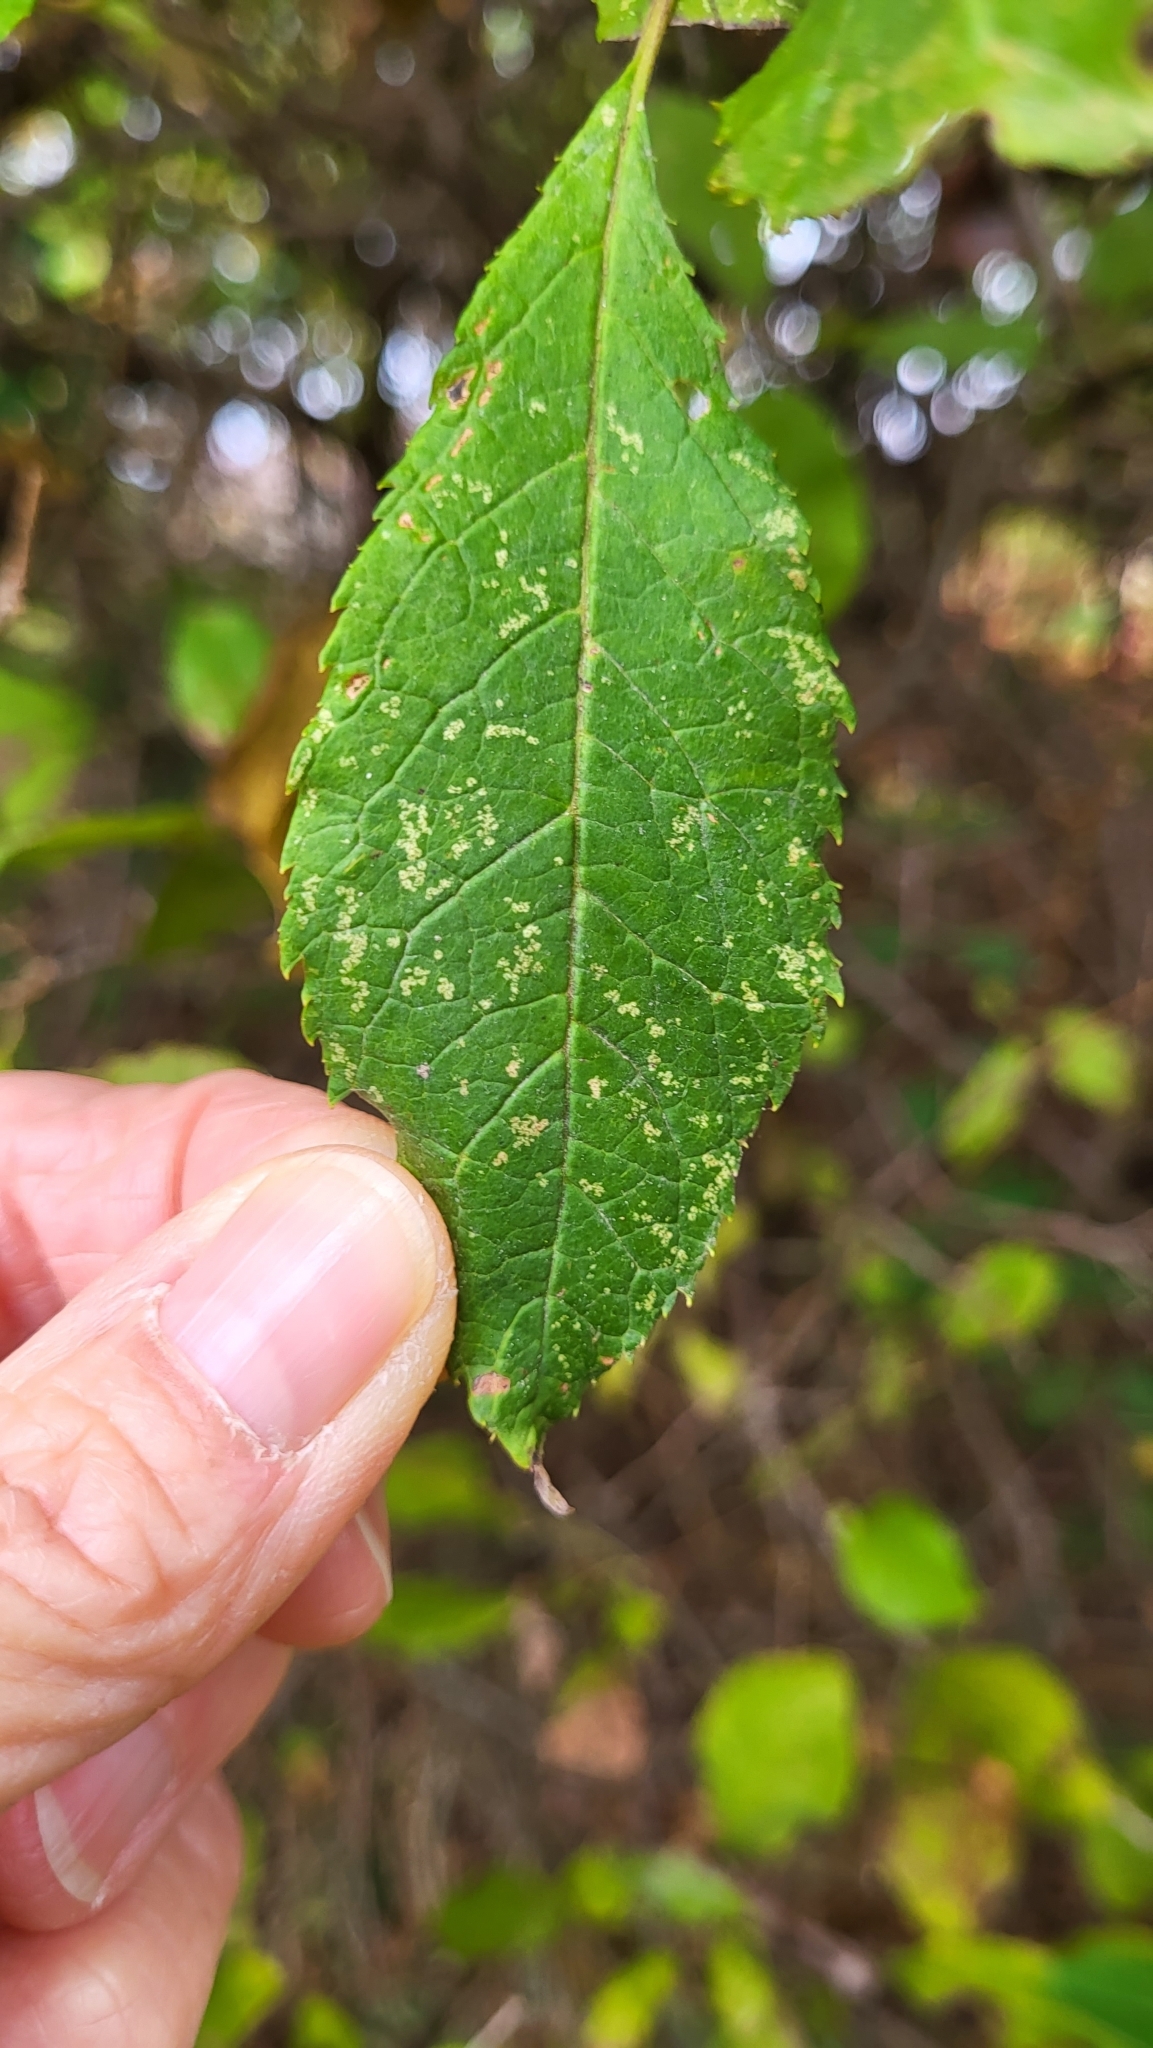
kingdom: Plantae
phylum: Tracheophyta
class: Magnoliopsida
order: Aquifoliales
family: Aquifoliaceae
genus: Ilex
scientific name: Ilex verticillata
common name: Virginia winterberry
